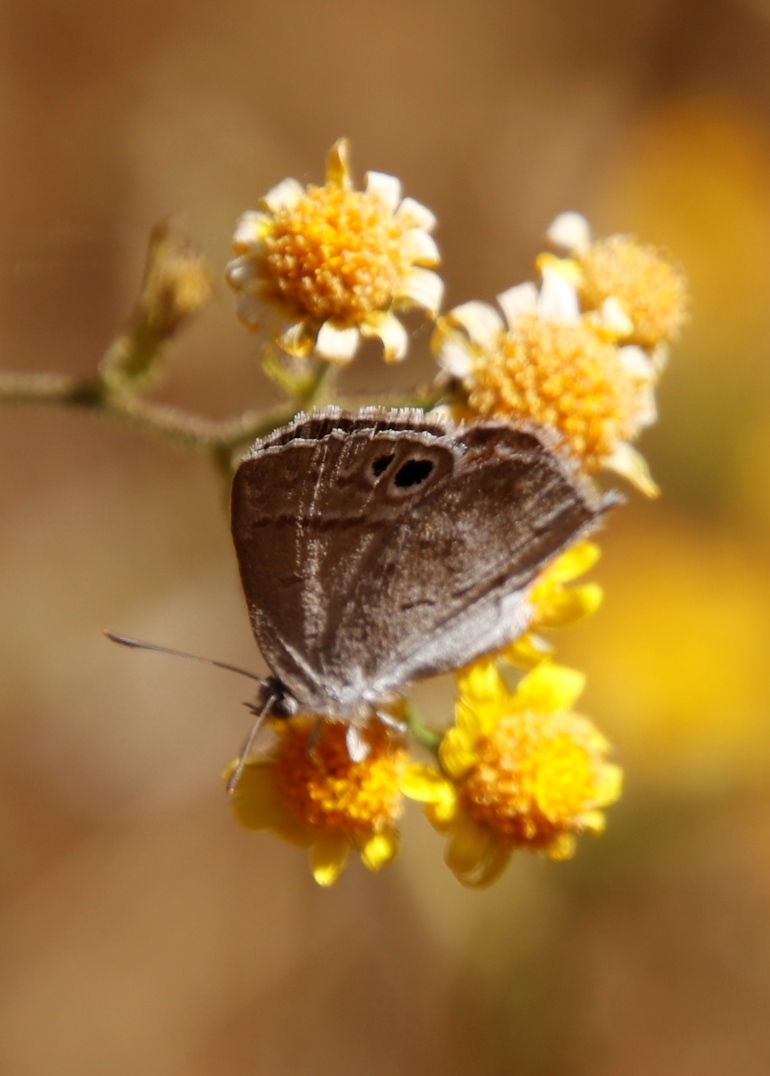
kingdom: Animalia
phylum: Arthropoda
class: Insecta
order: Lepidoptera
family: Lycaenidae
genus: Leptomyrina
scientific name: Leptomyrina henningi
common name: Henning's black-eye
